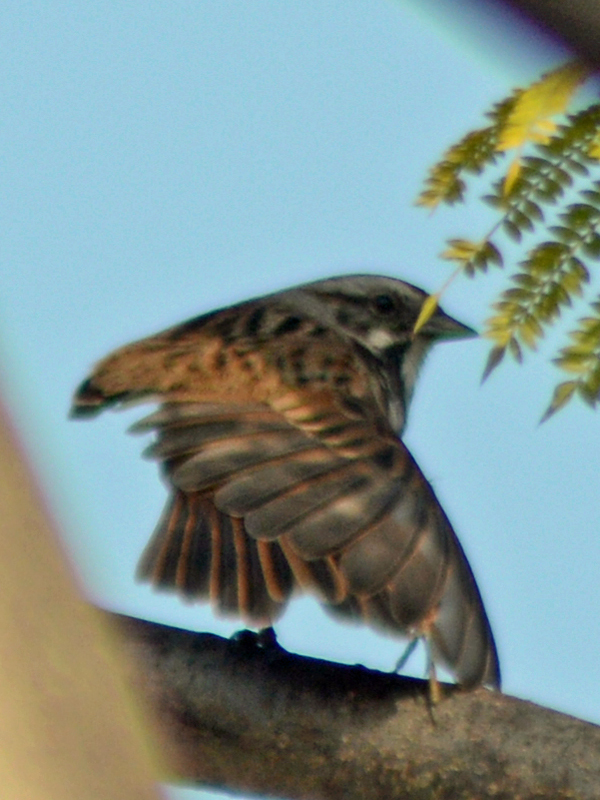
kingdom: Animalia
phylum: Chordata
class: Aves
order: Passeriformes
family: Passerellidae
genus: Melospiza
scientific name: Melospiza melodia
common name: Song sparrow
